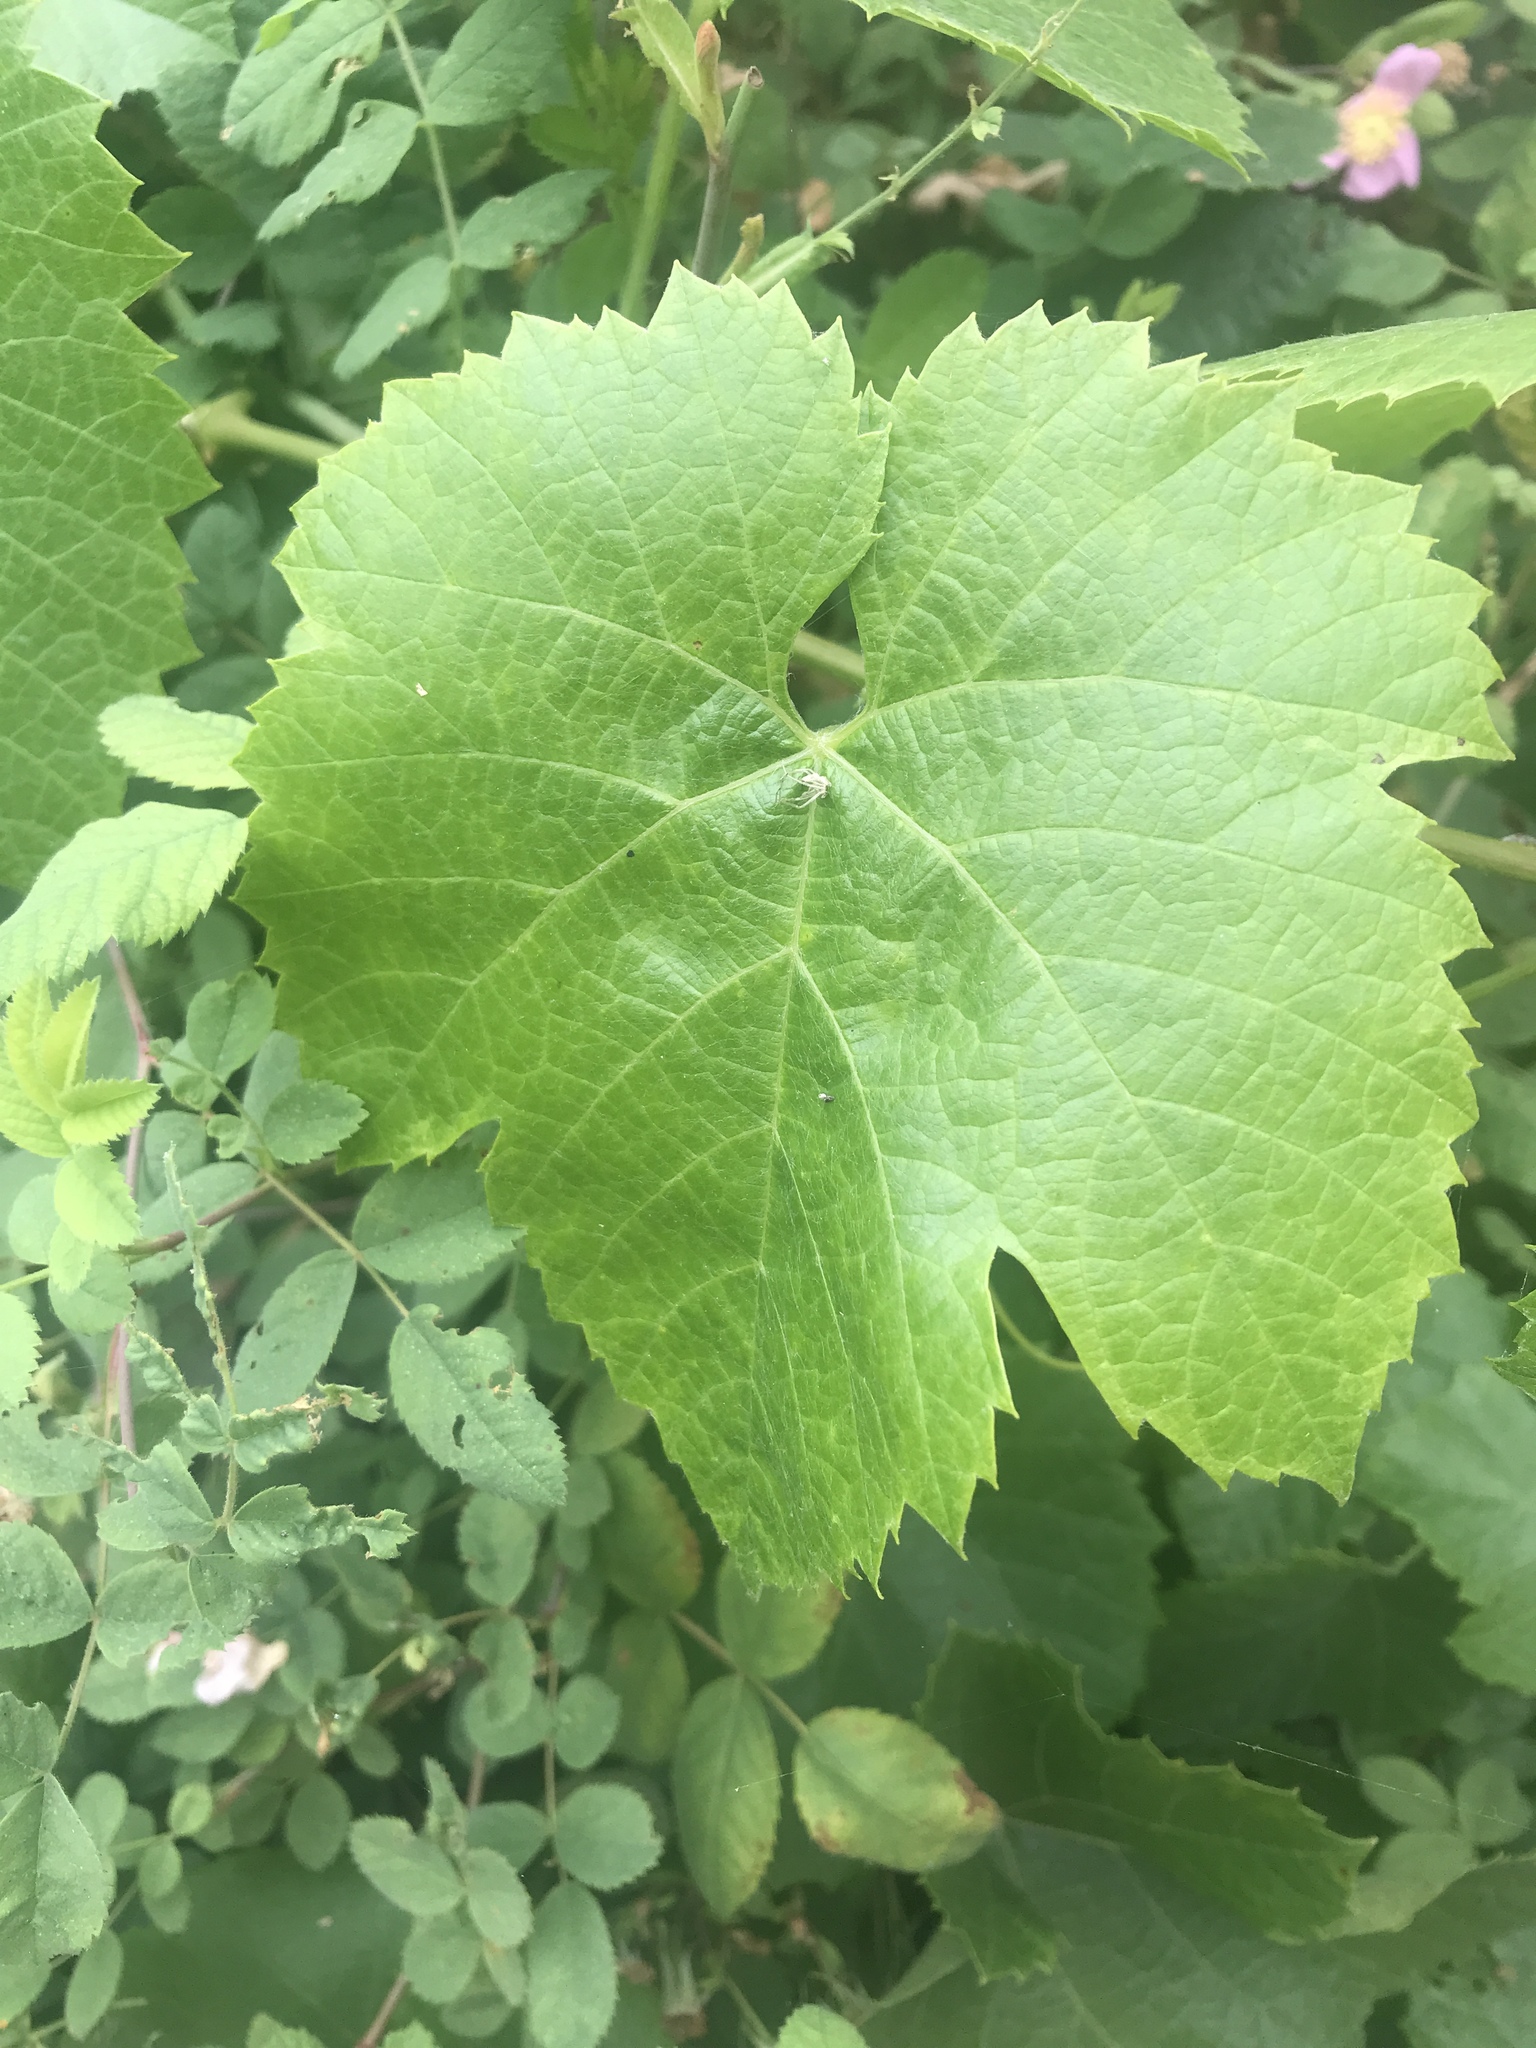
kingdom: Plantae
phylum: Tracheophyta
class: Magnoliopsida
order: Vitales
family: Vitaceae
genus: Vitis
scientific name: Vitis californica
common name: California wild grape
